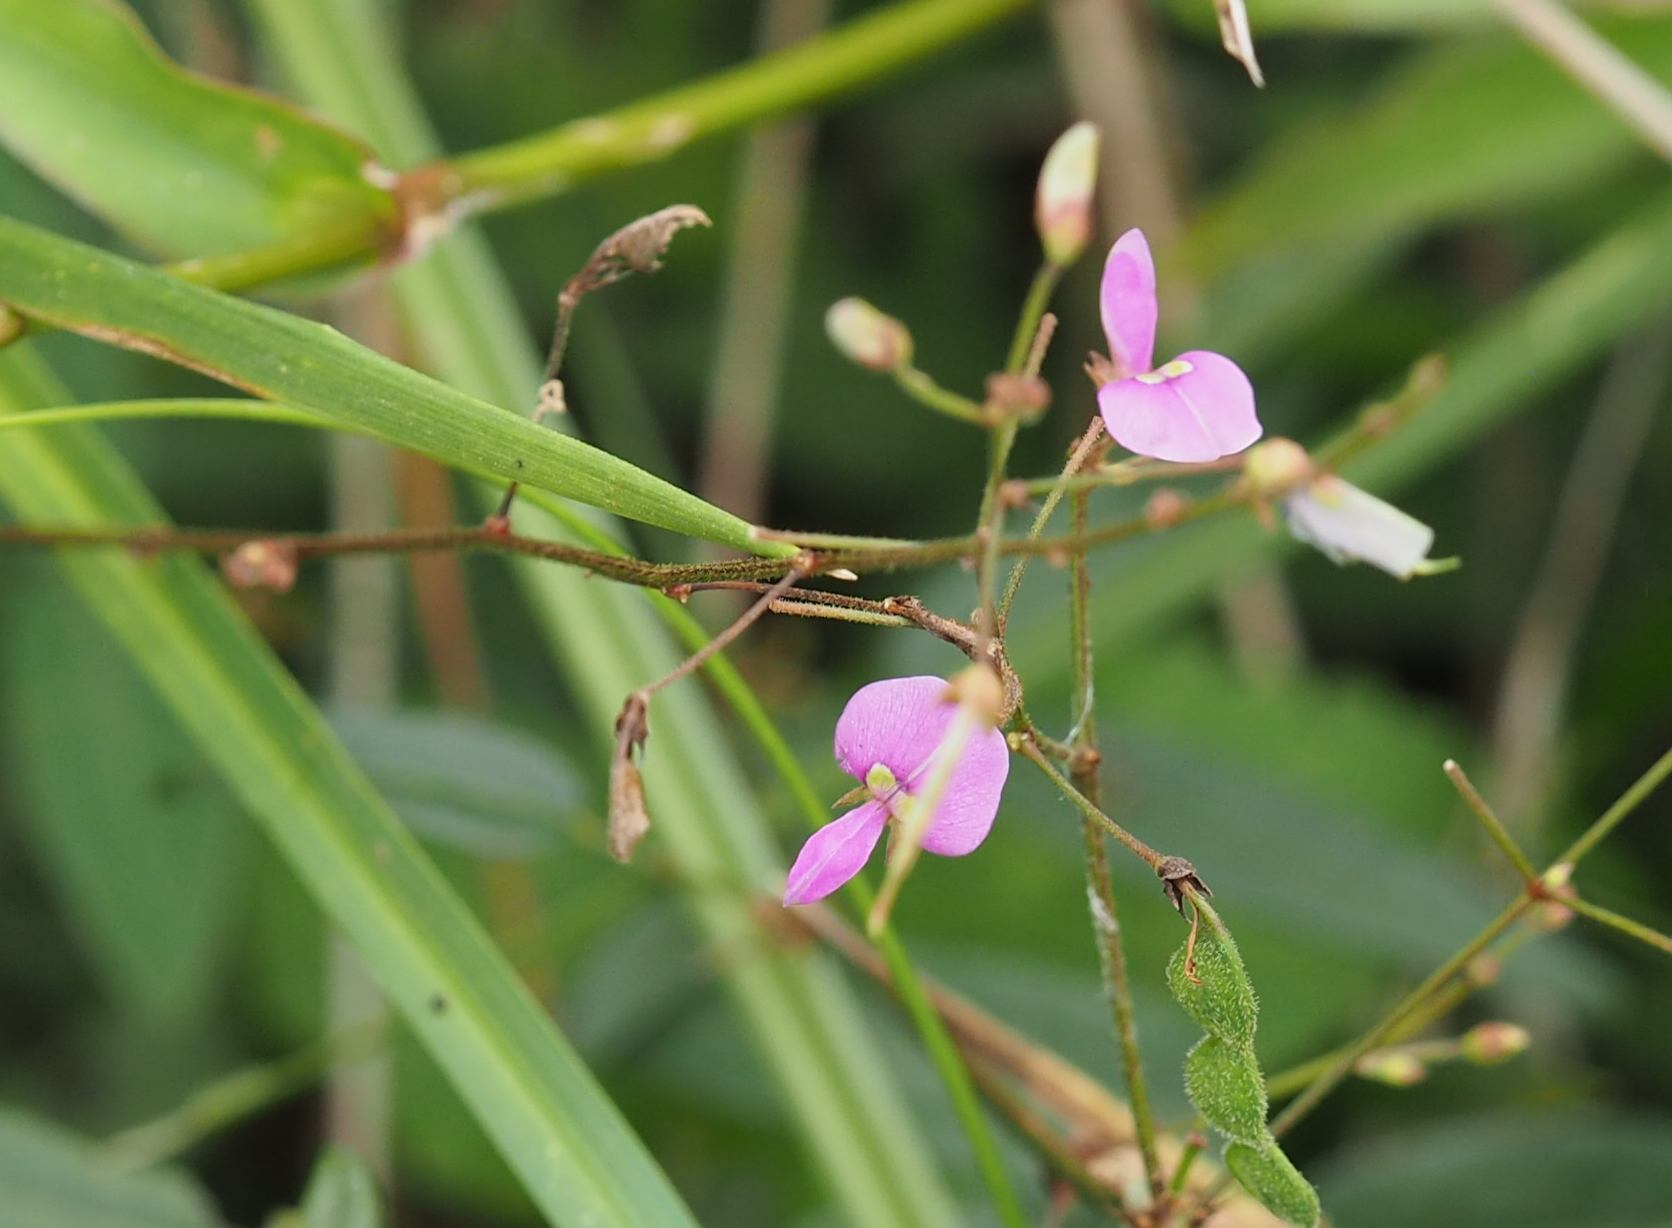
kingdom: Plantae
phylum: Tracheophyta
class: Magnoliopsida
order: Fabales
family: Fabaceae
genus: Desmodium
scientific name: Desmodium
